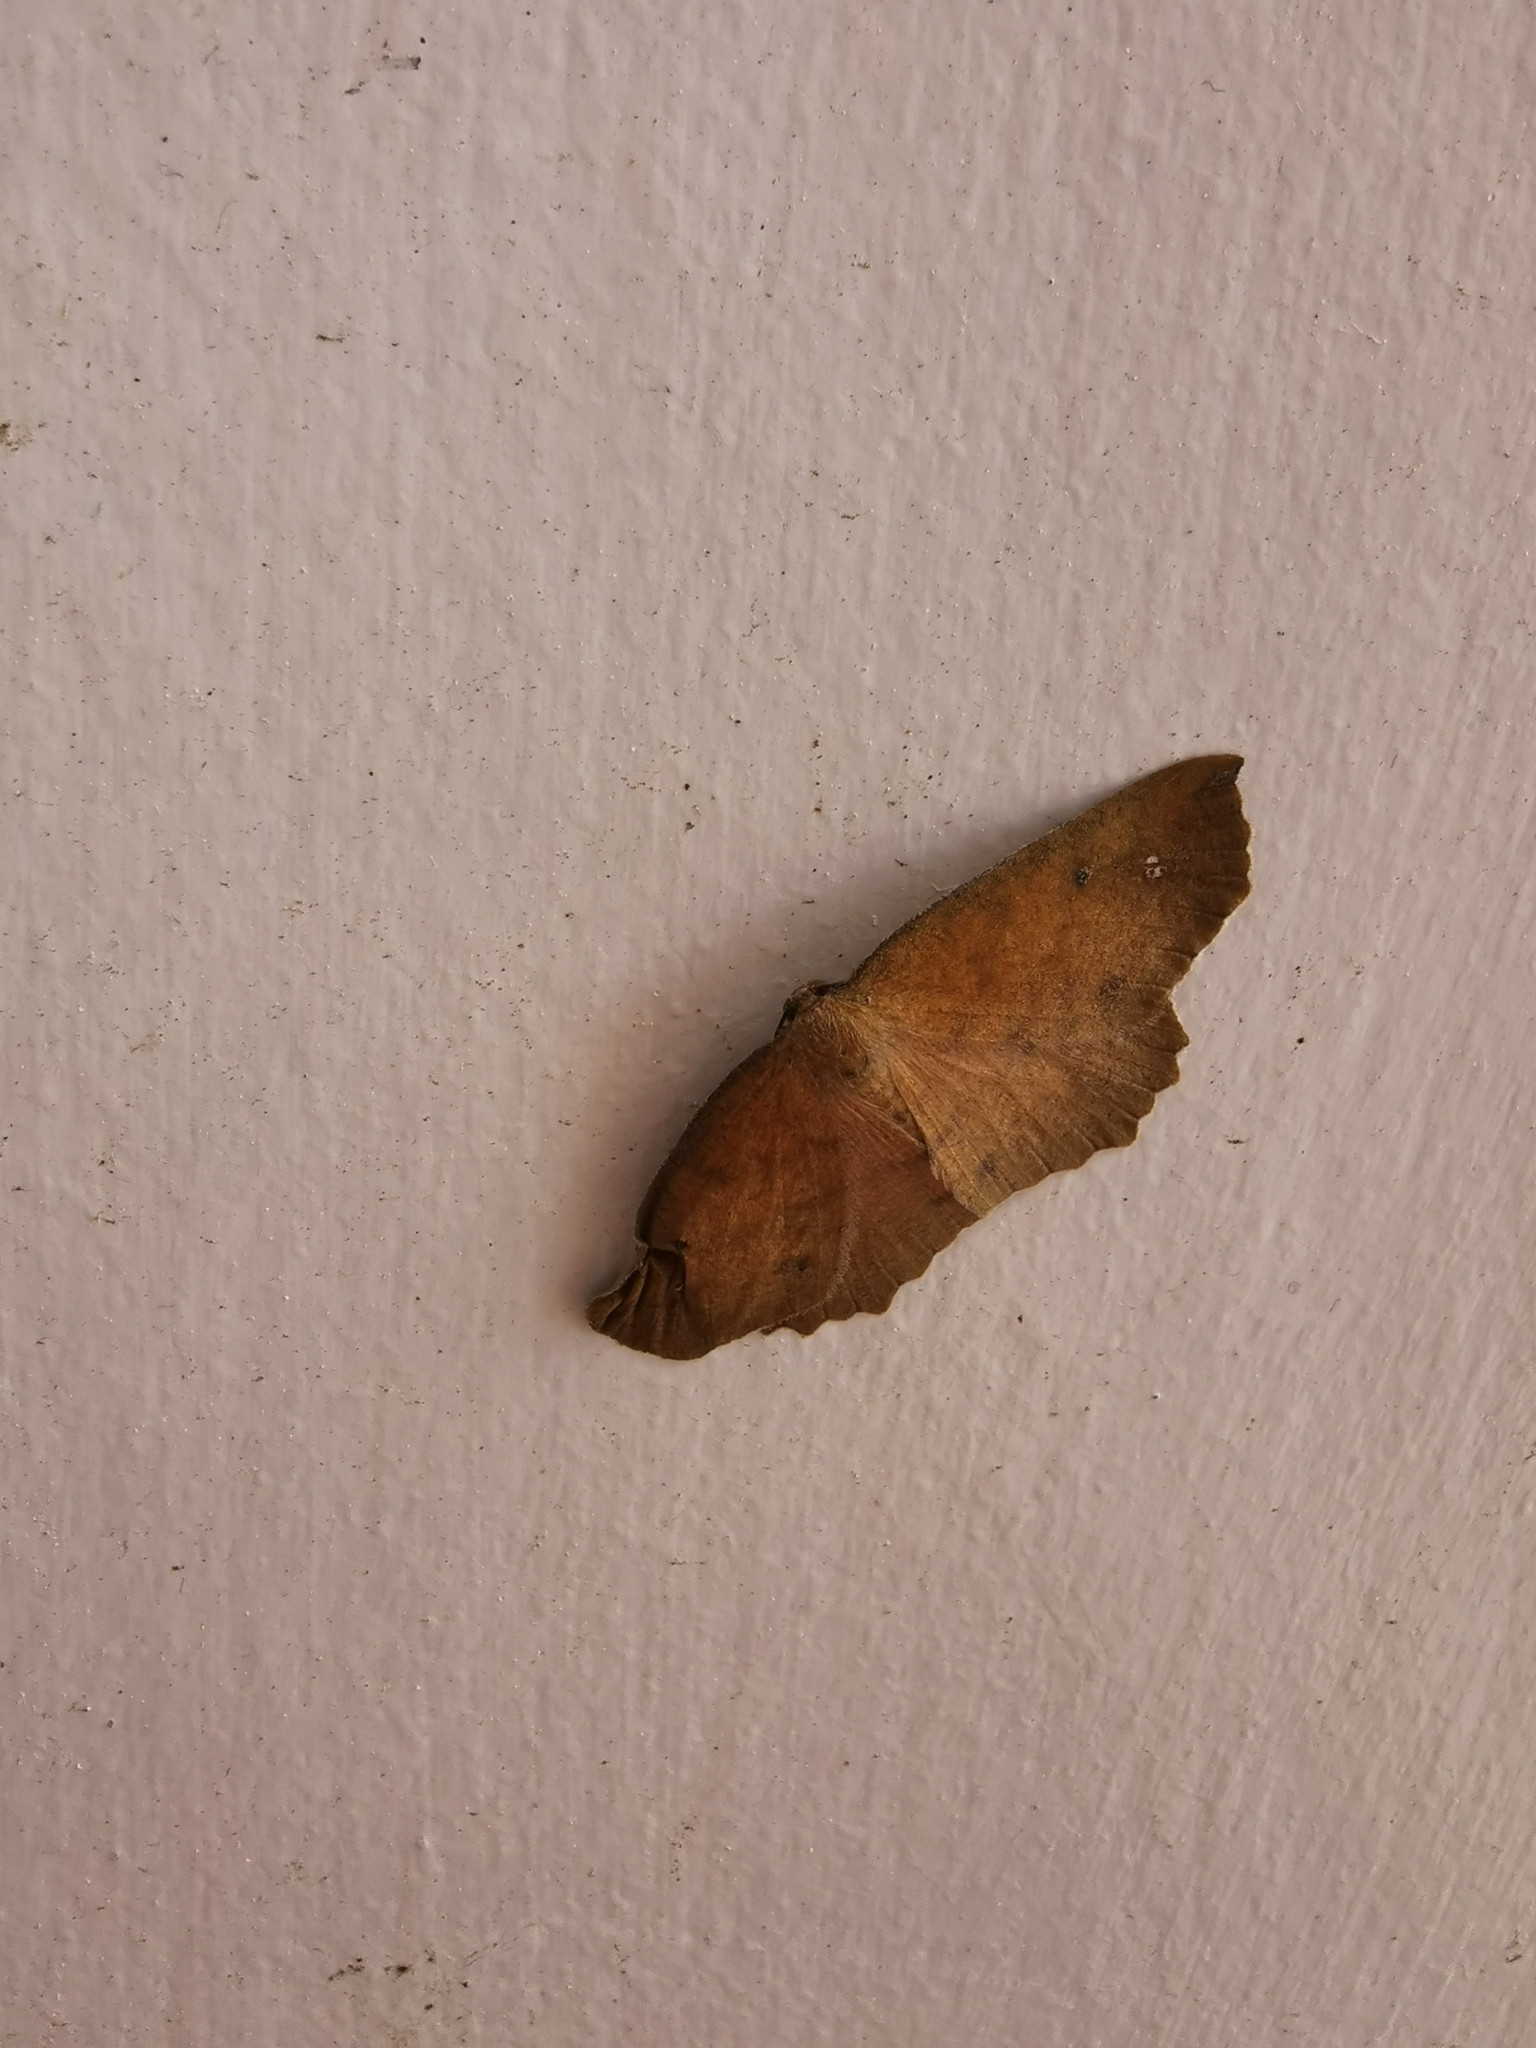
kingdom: Animalia
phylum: Arthropoda
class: Insecta
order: Lepidoptera
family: Geometridae
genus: Xyridacma
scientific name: Xyridacma ustaria
